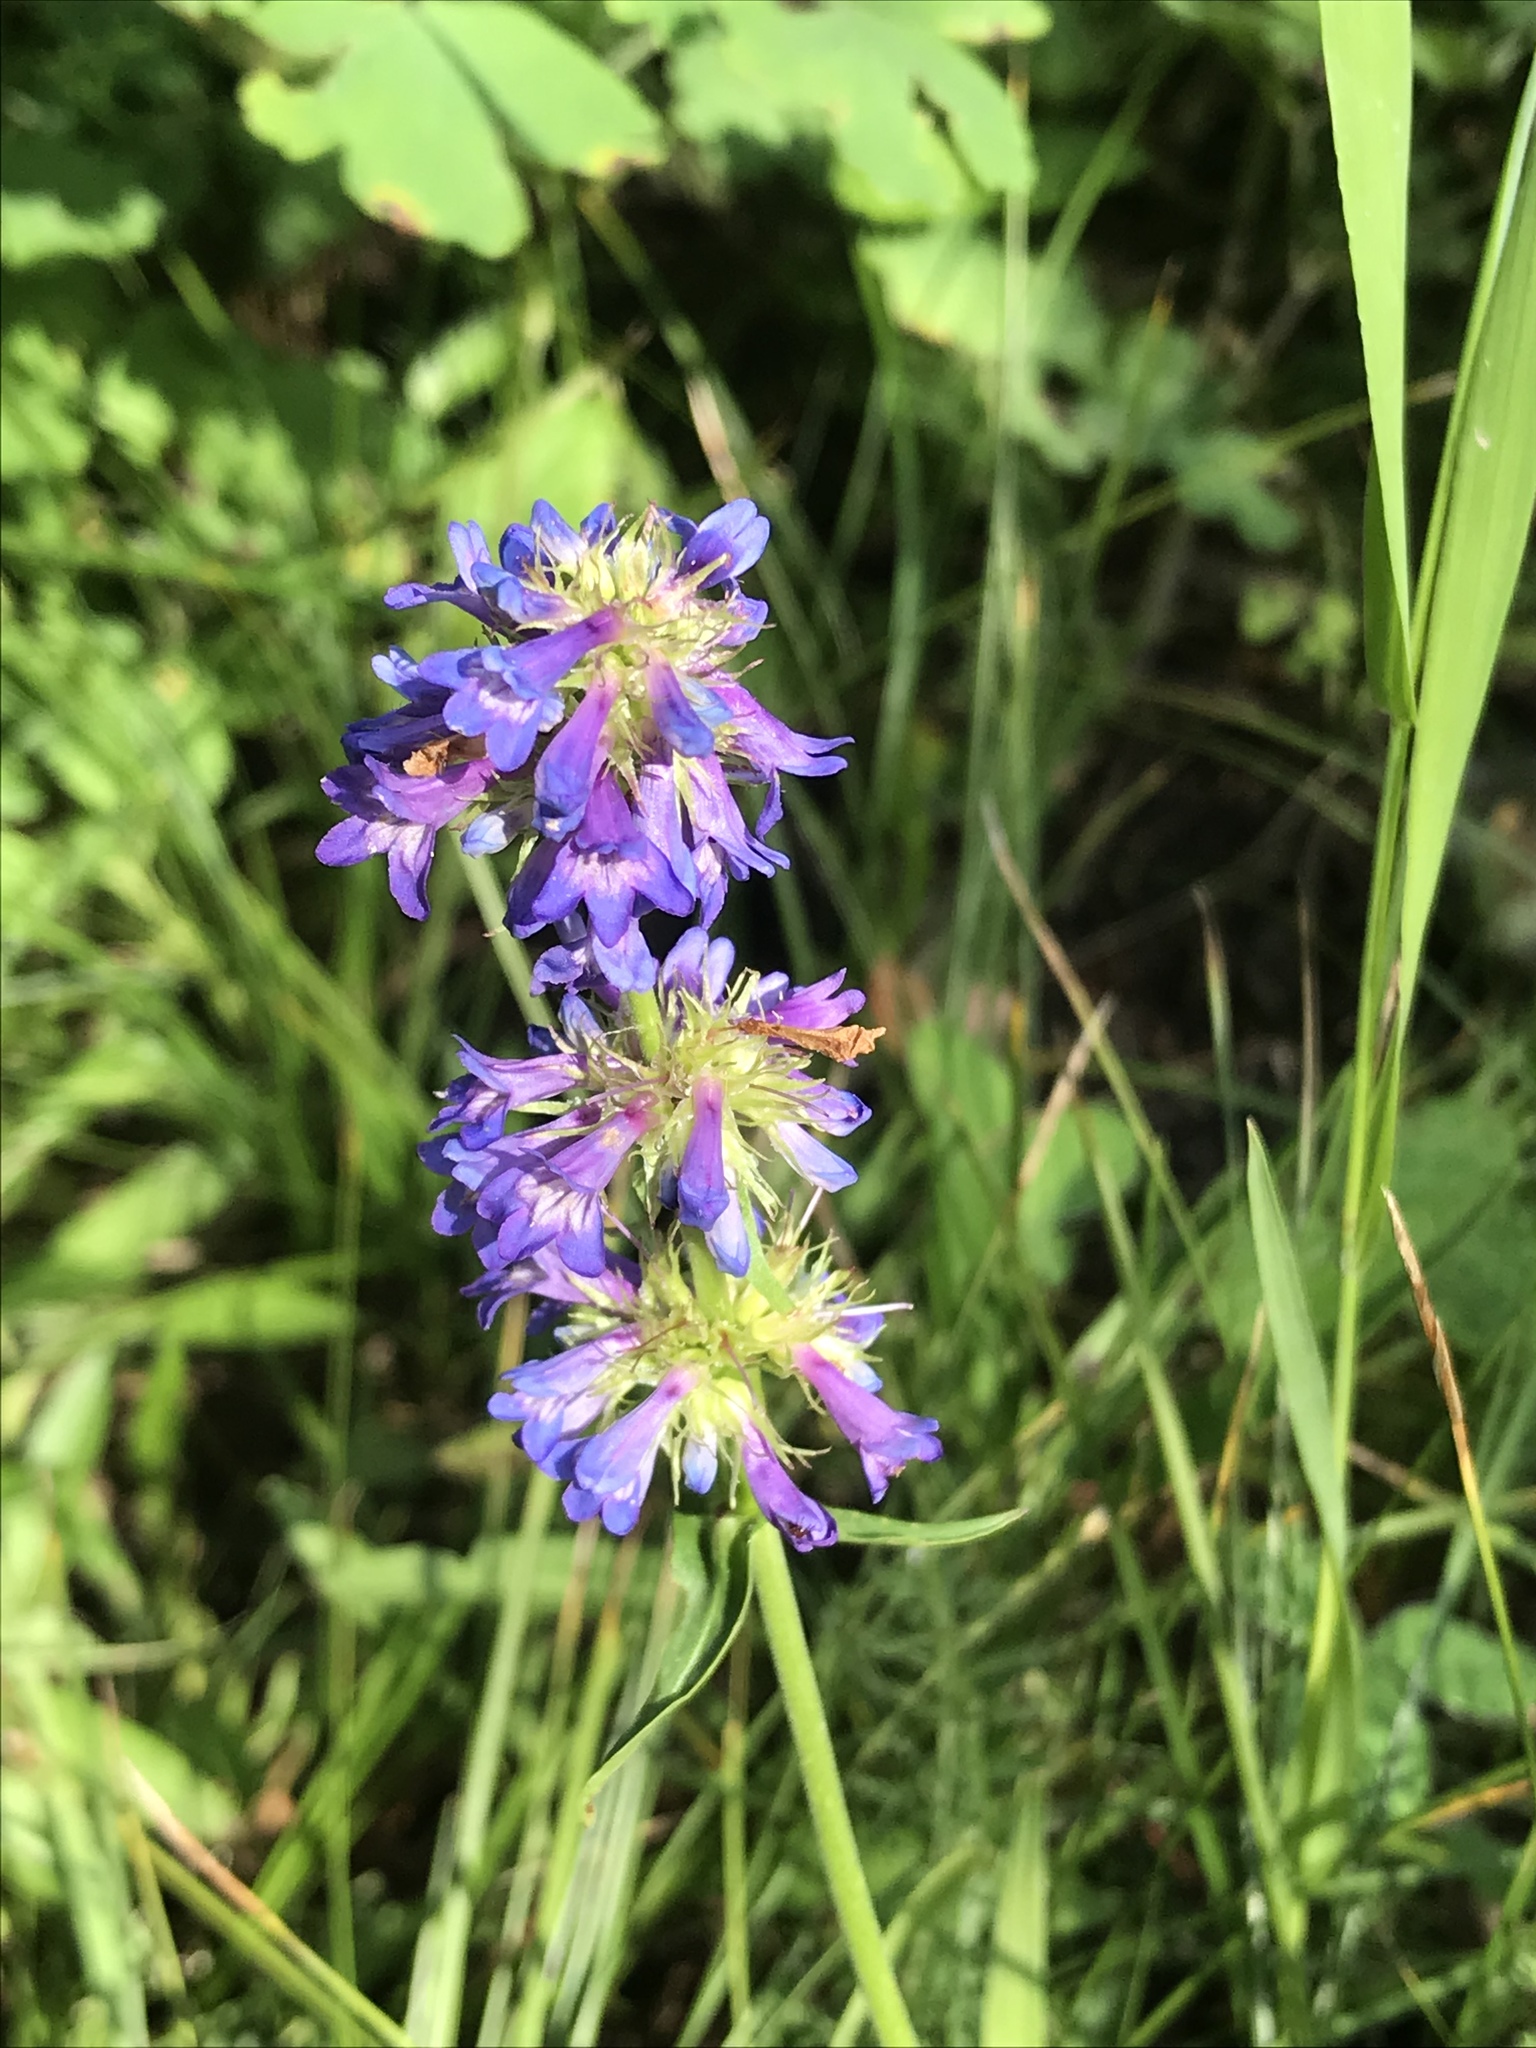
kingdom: Plantae
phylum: Tracheophyta
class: Magnoliopsida
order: Lamiales
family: Plantaginaceae
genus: Penstemon
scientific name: Penstemon procerus
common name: Small-flower penstemon
